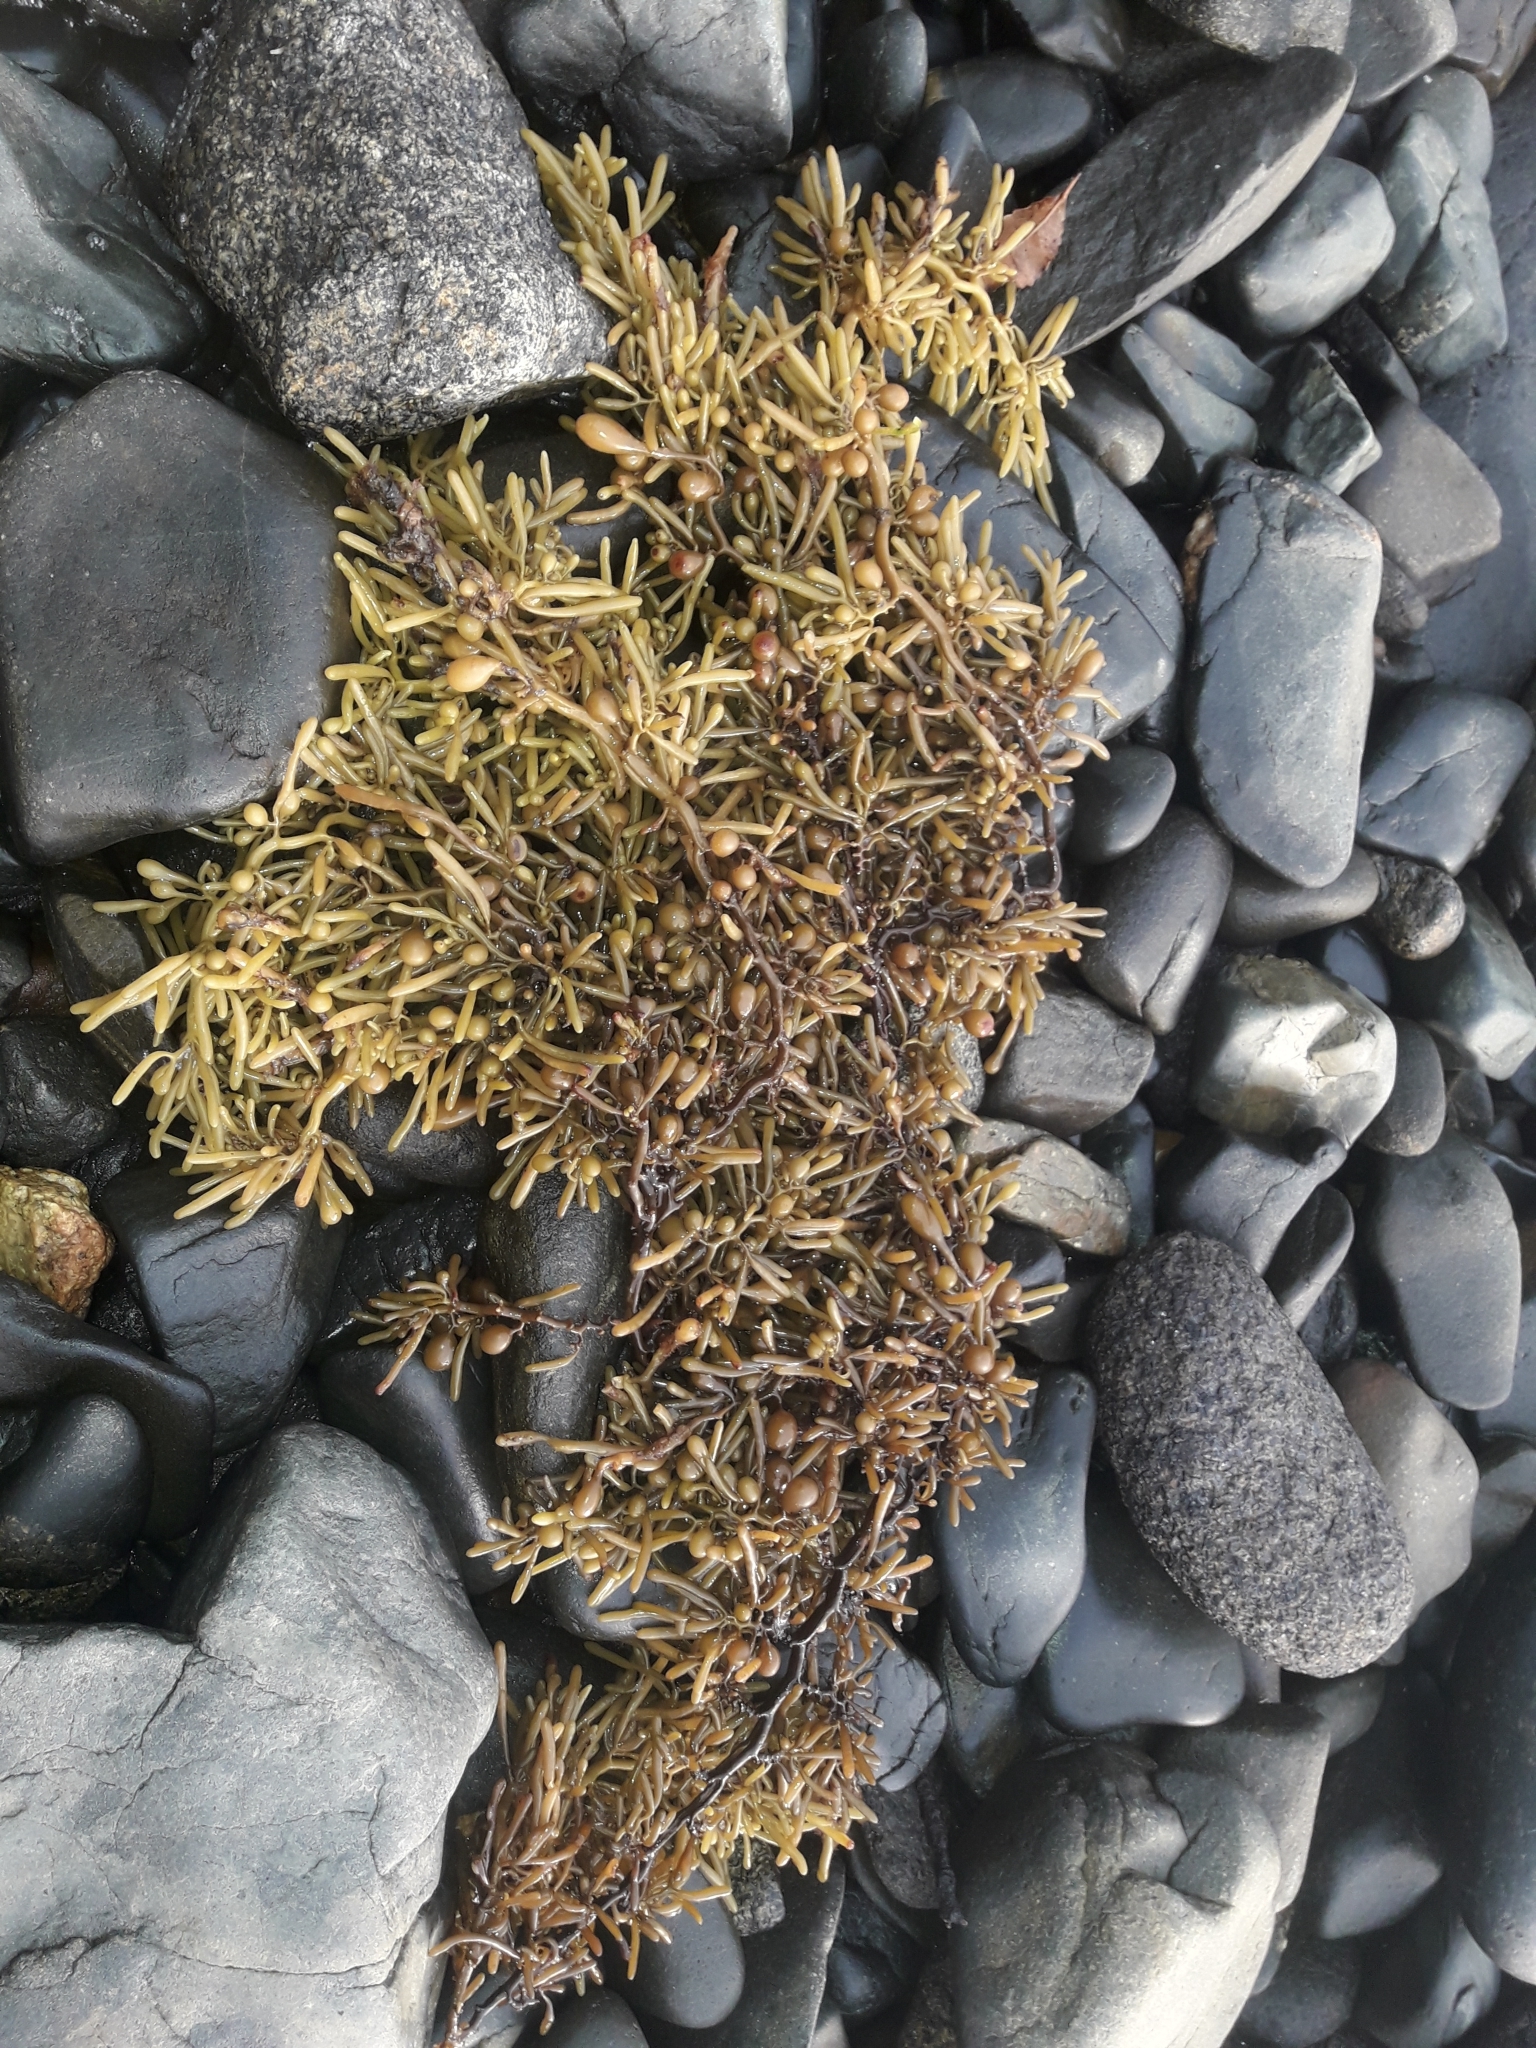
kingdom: Chromista
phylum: Ochrophyta
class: Phaeophyceae
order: Fucales
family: Sargassaceae
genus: Cystophora
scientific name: Cystophora torulosa
